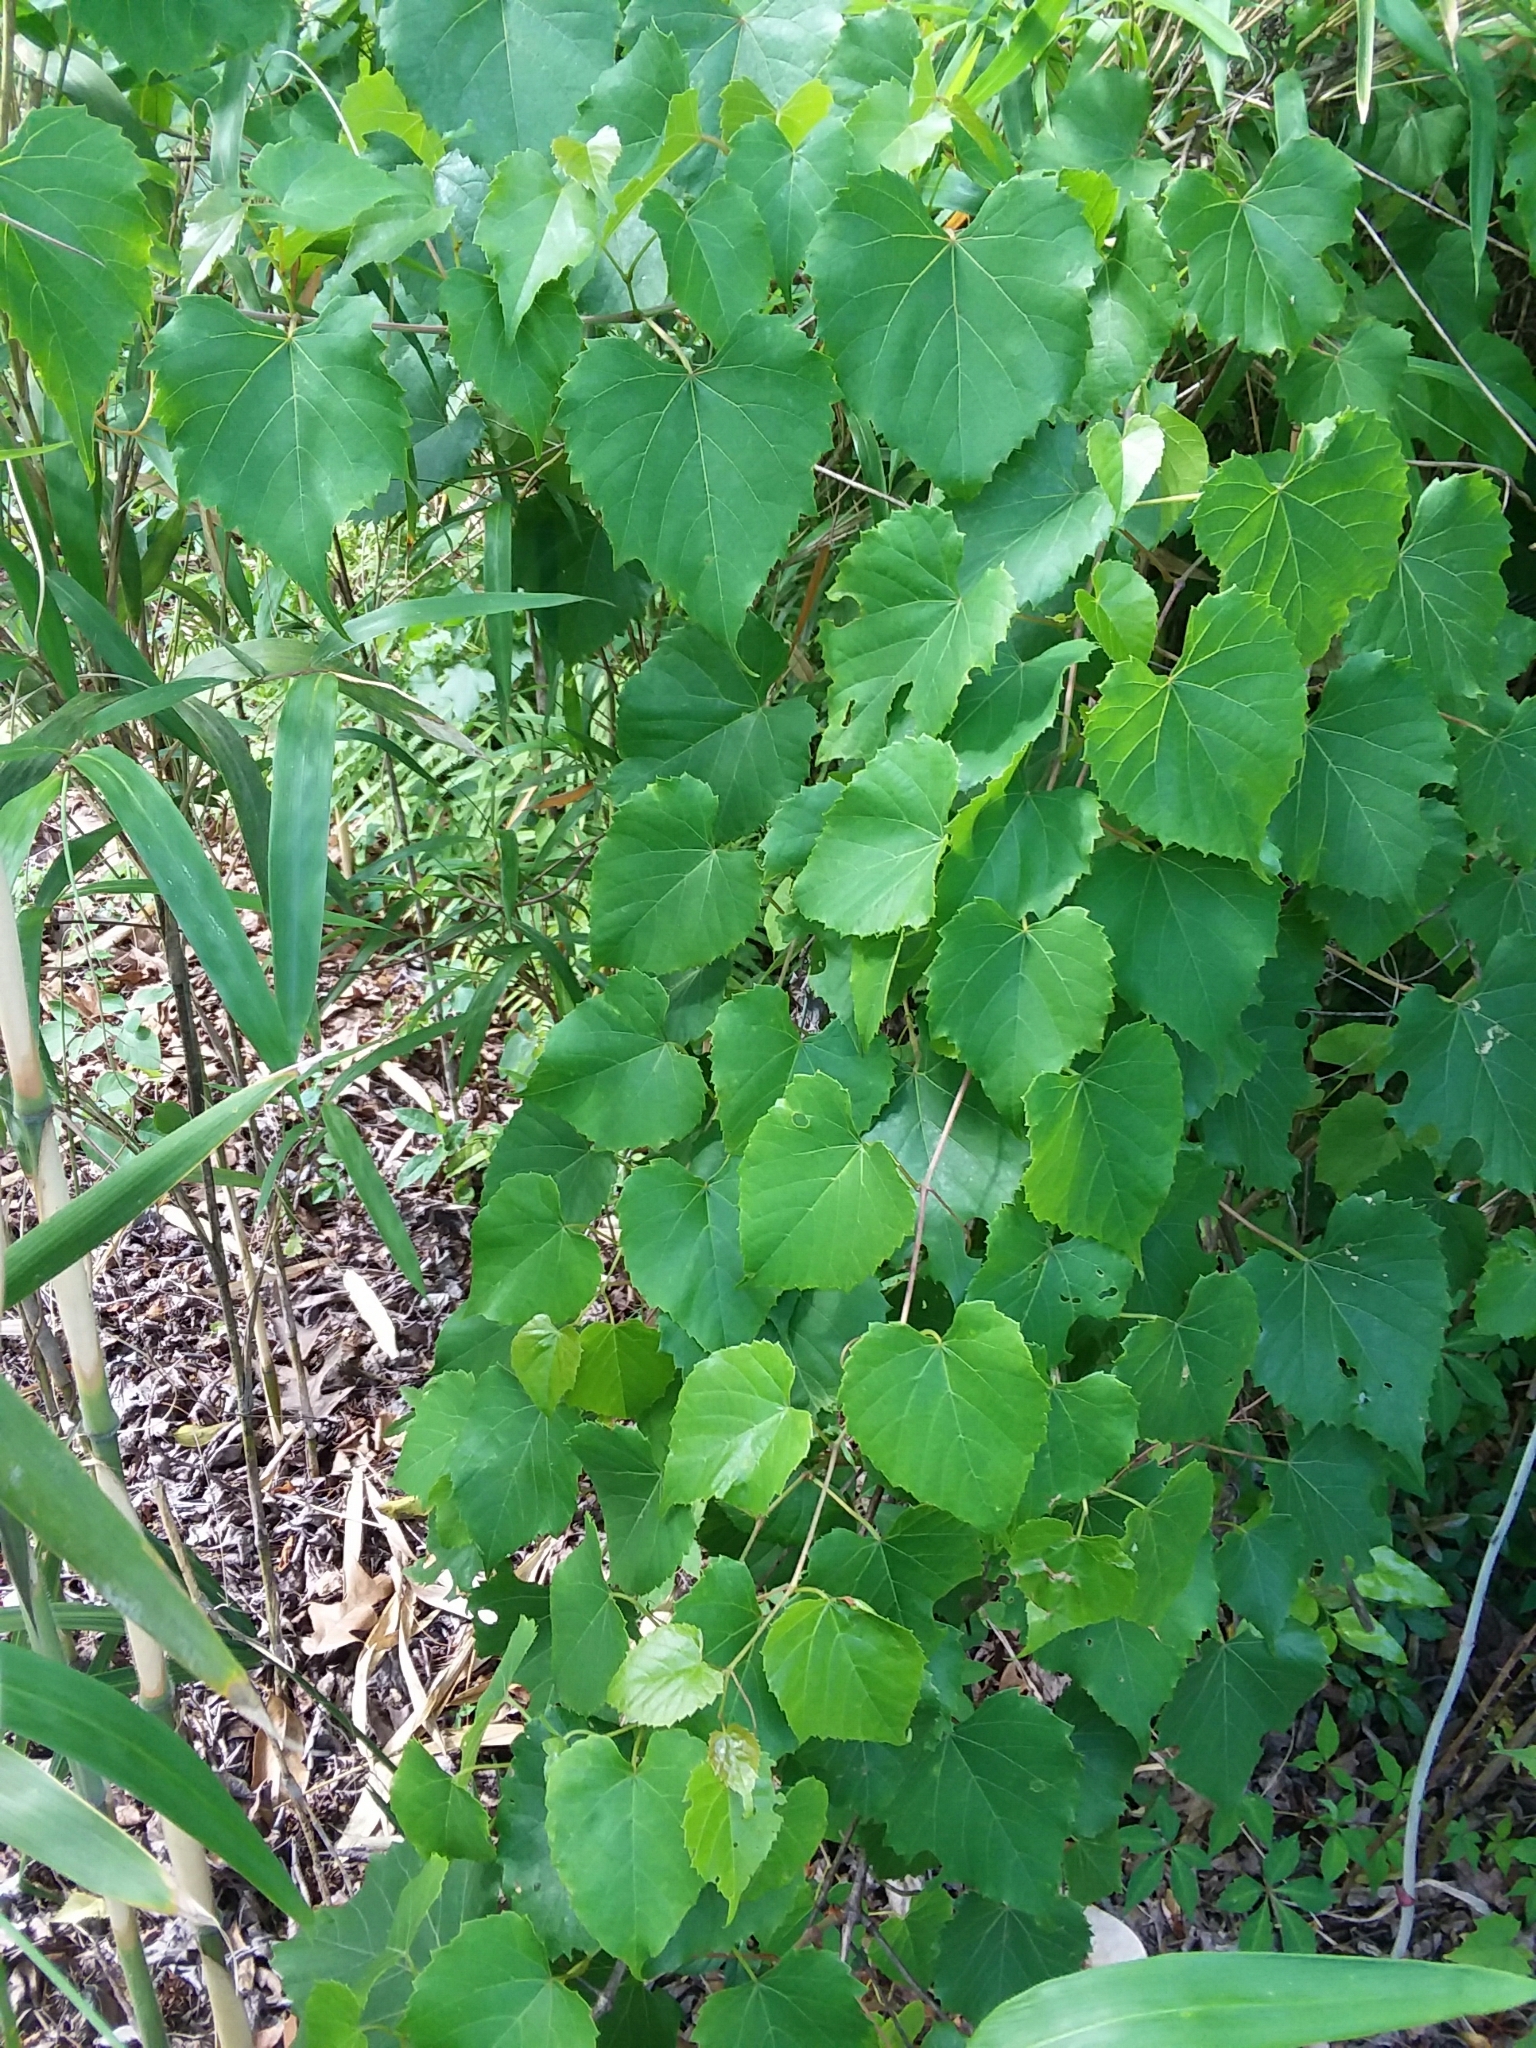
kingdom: Plantae
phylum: Tracheophyta
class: Magnoliopsida
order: Vitales
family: Vitaceae
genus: Vitis
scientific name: Vitis vulpina
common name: Frost grape
